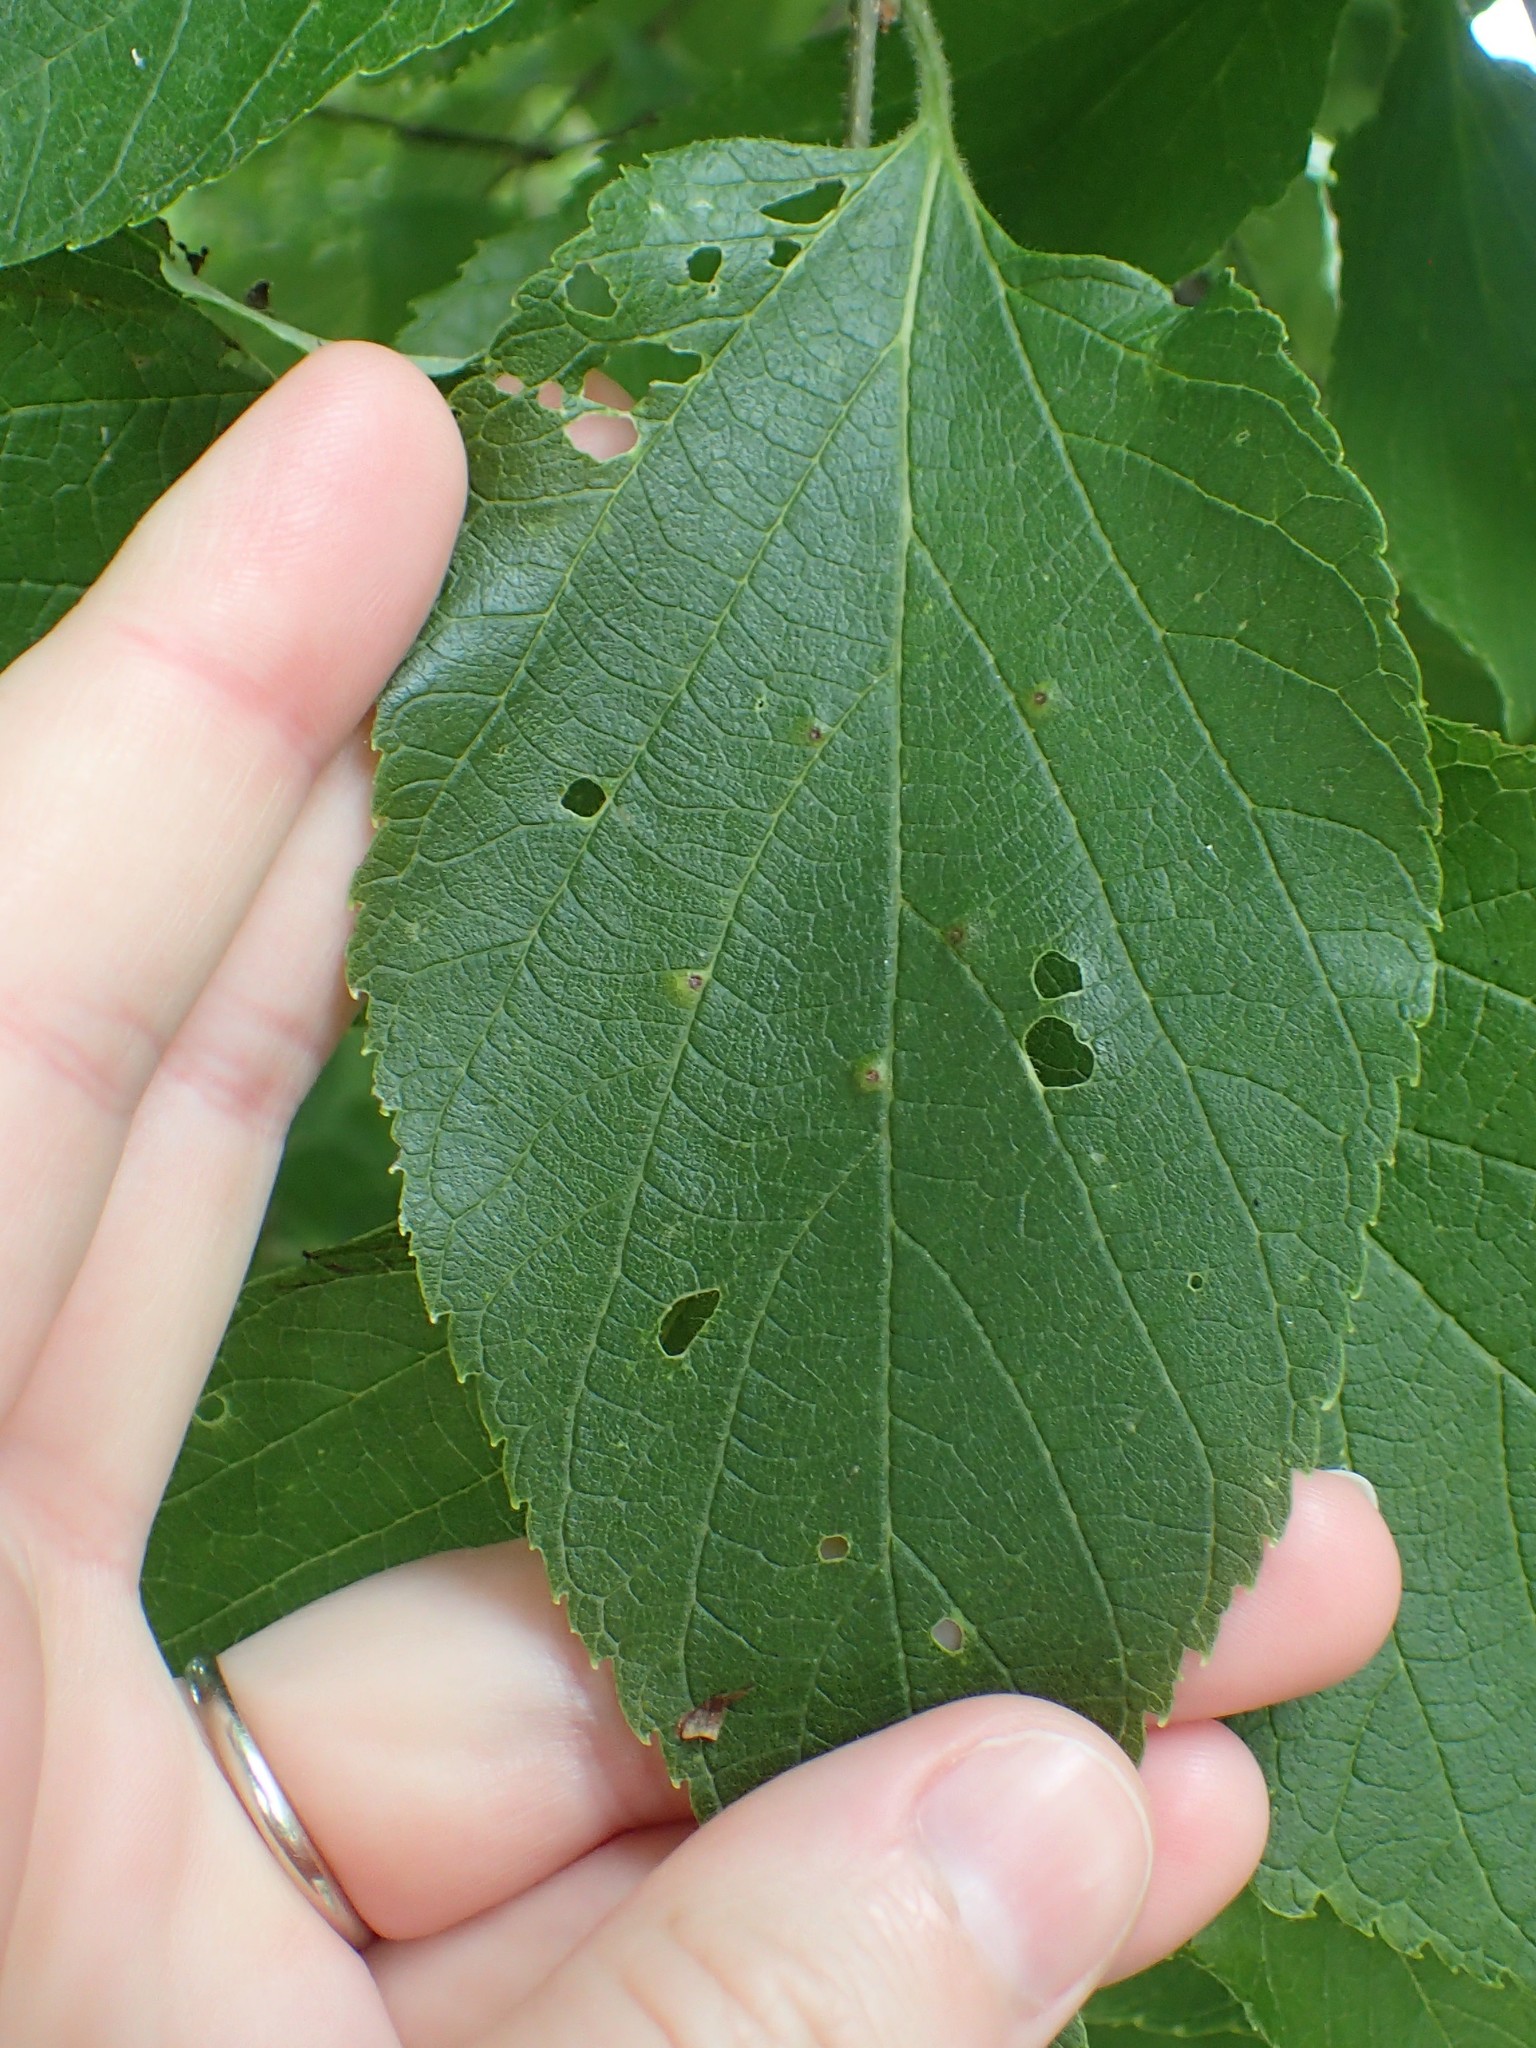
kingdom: Animalia
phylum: Arthropoda
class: Insecta
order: Hemiptera
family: Aphalaridae
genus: Pachypsylla
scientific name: Pachypsylla celtidisvesicula
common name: Hackberry blister gall psyllid
